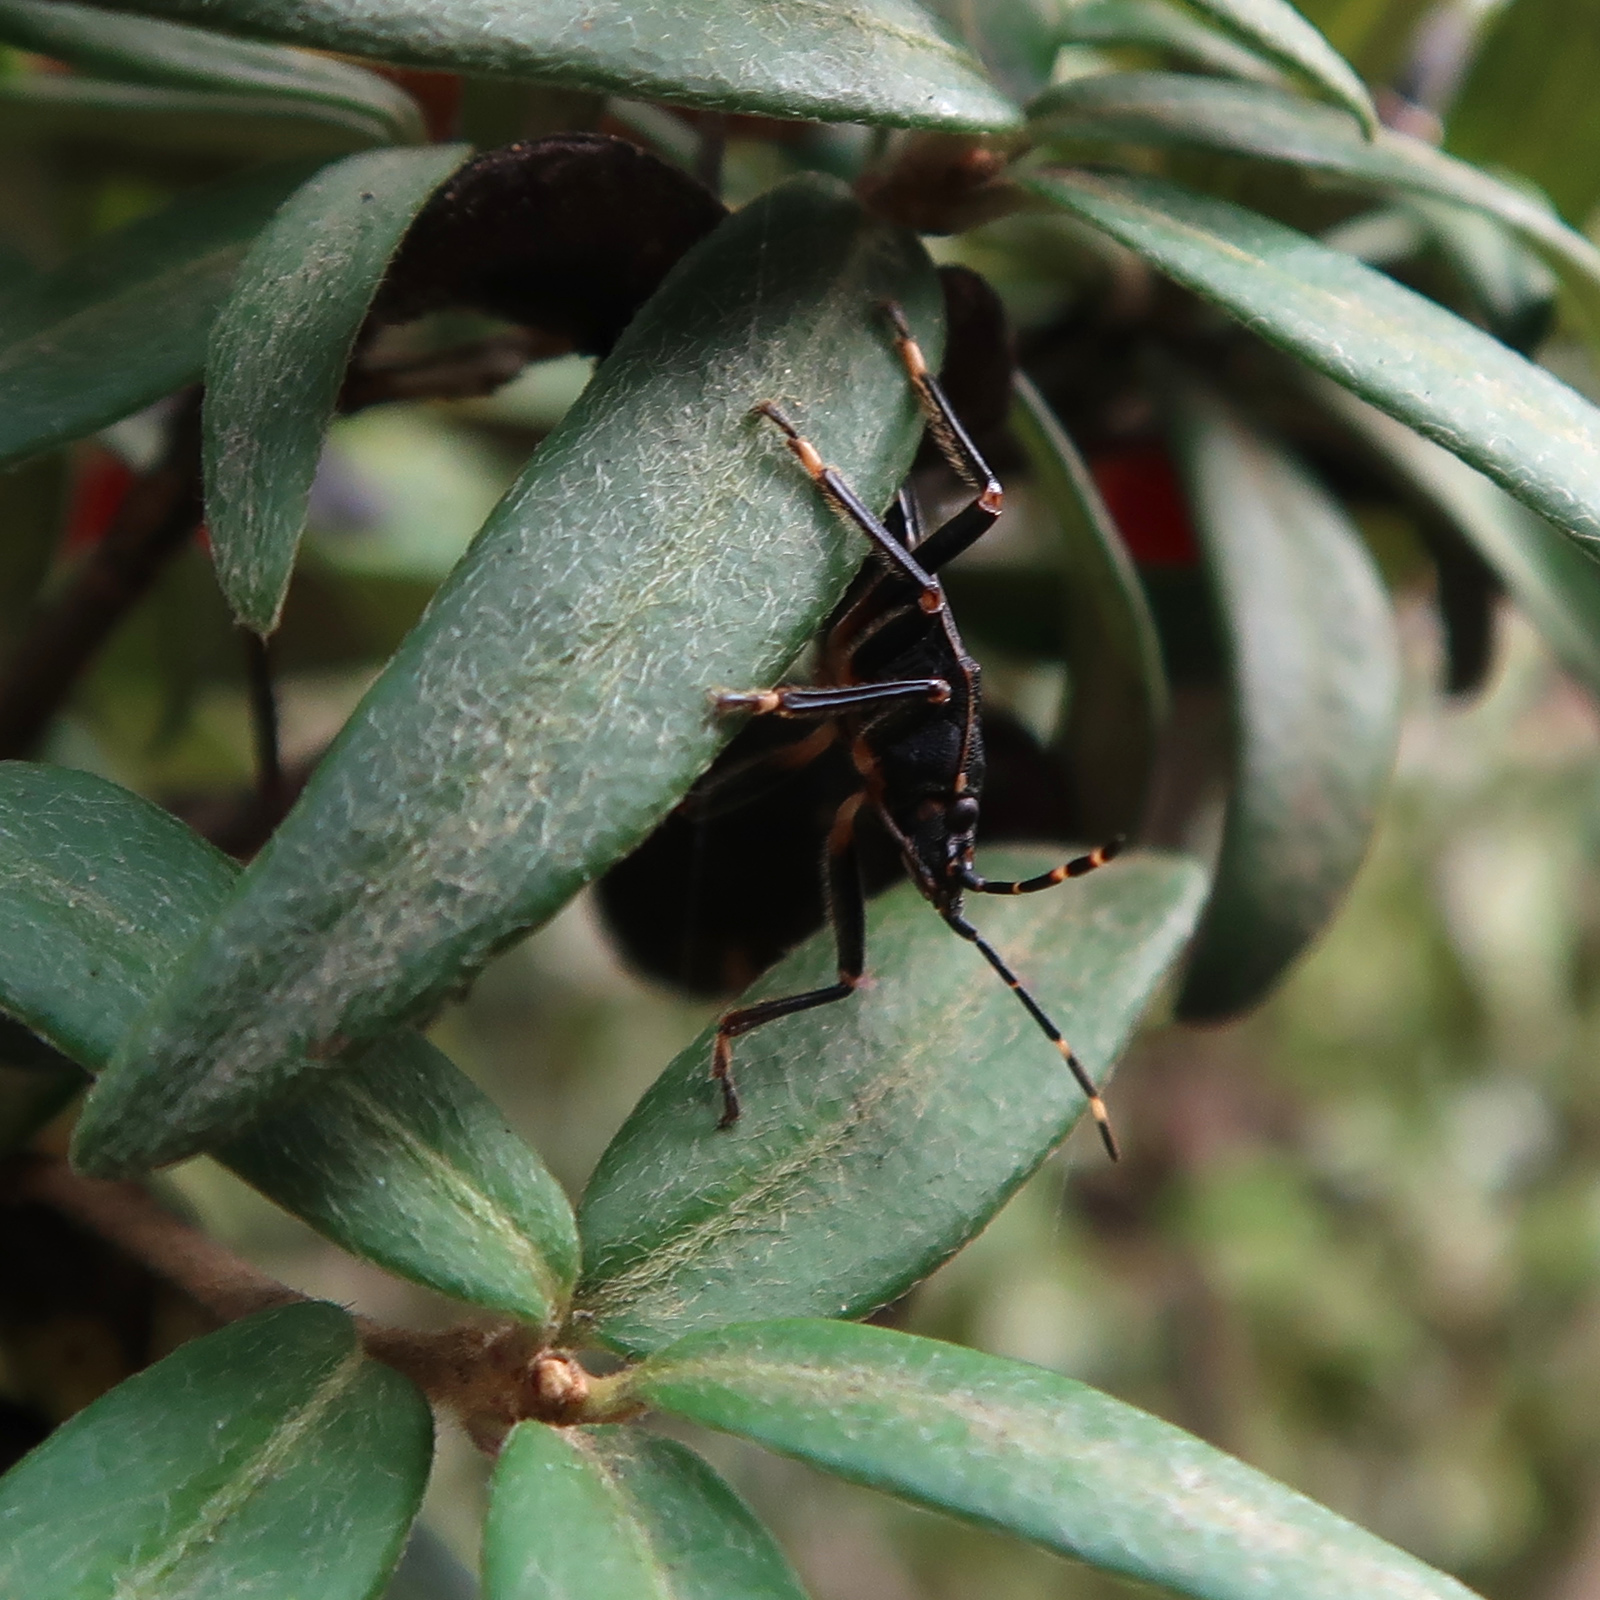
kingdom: Animalia
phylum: Arthropoda
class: Insecta
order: Hemiptera
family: Pentatomidae
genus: Notius
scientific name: Notius
